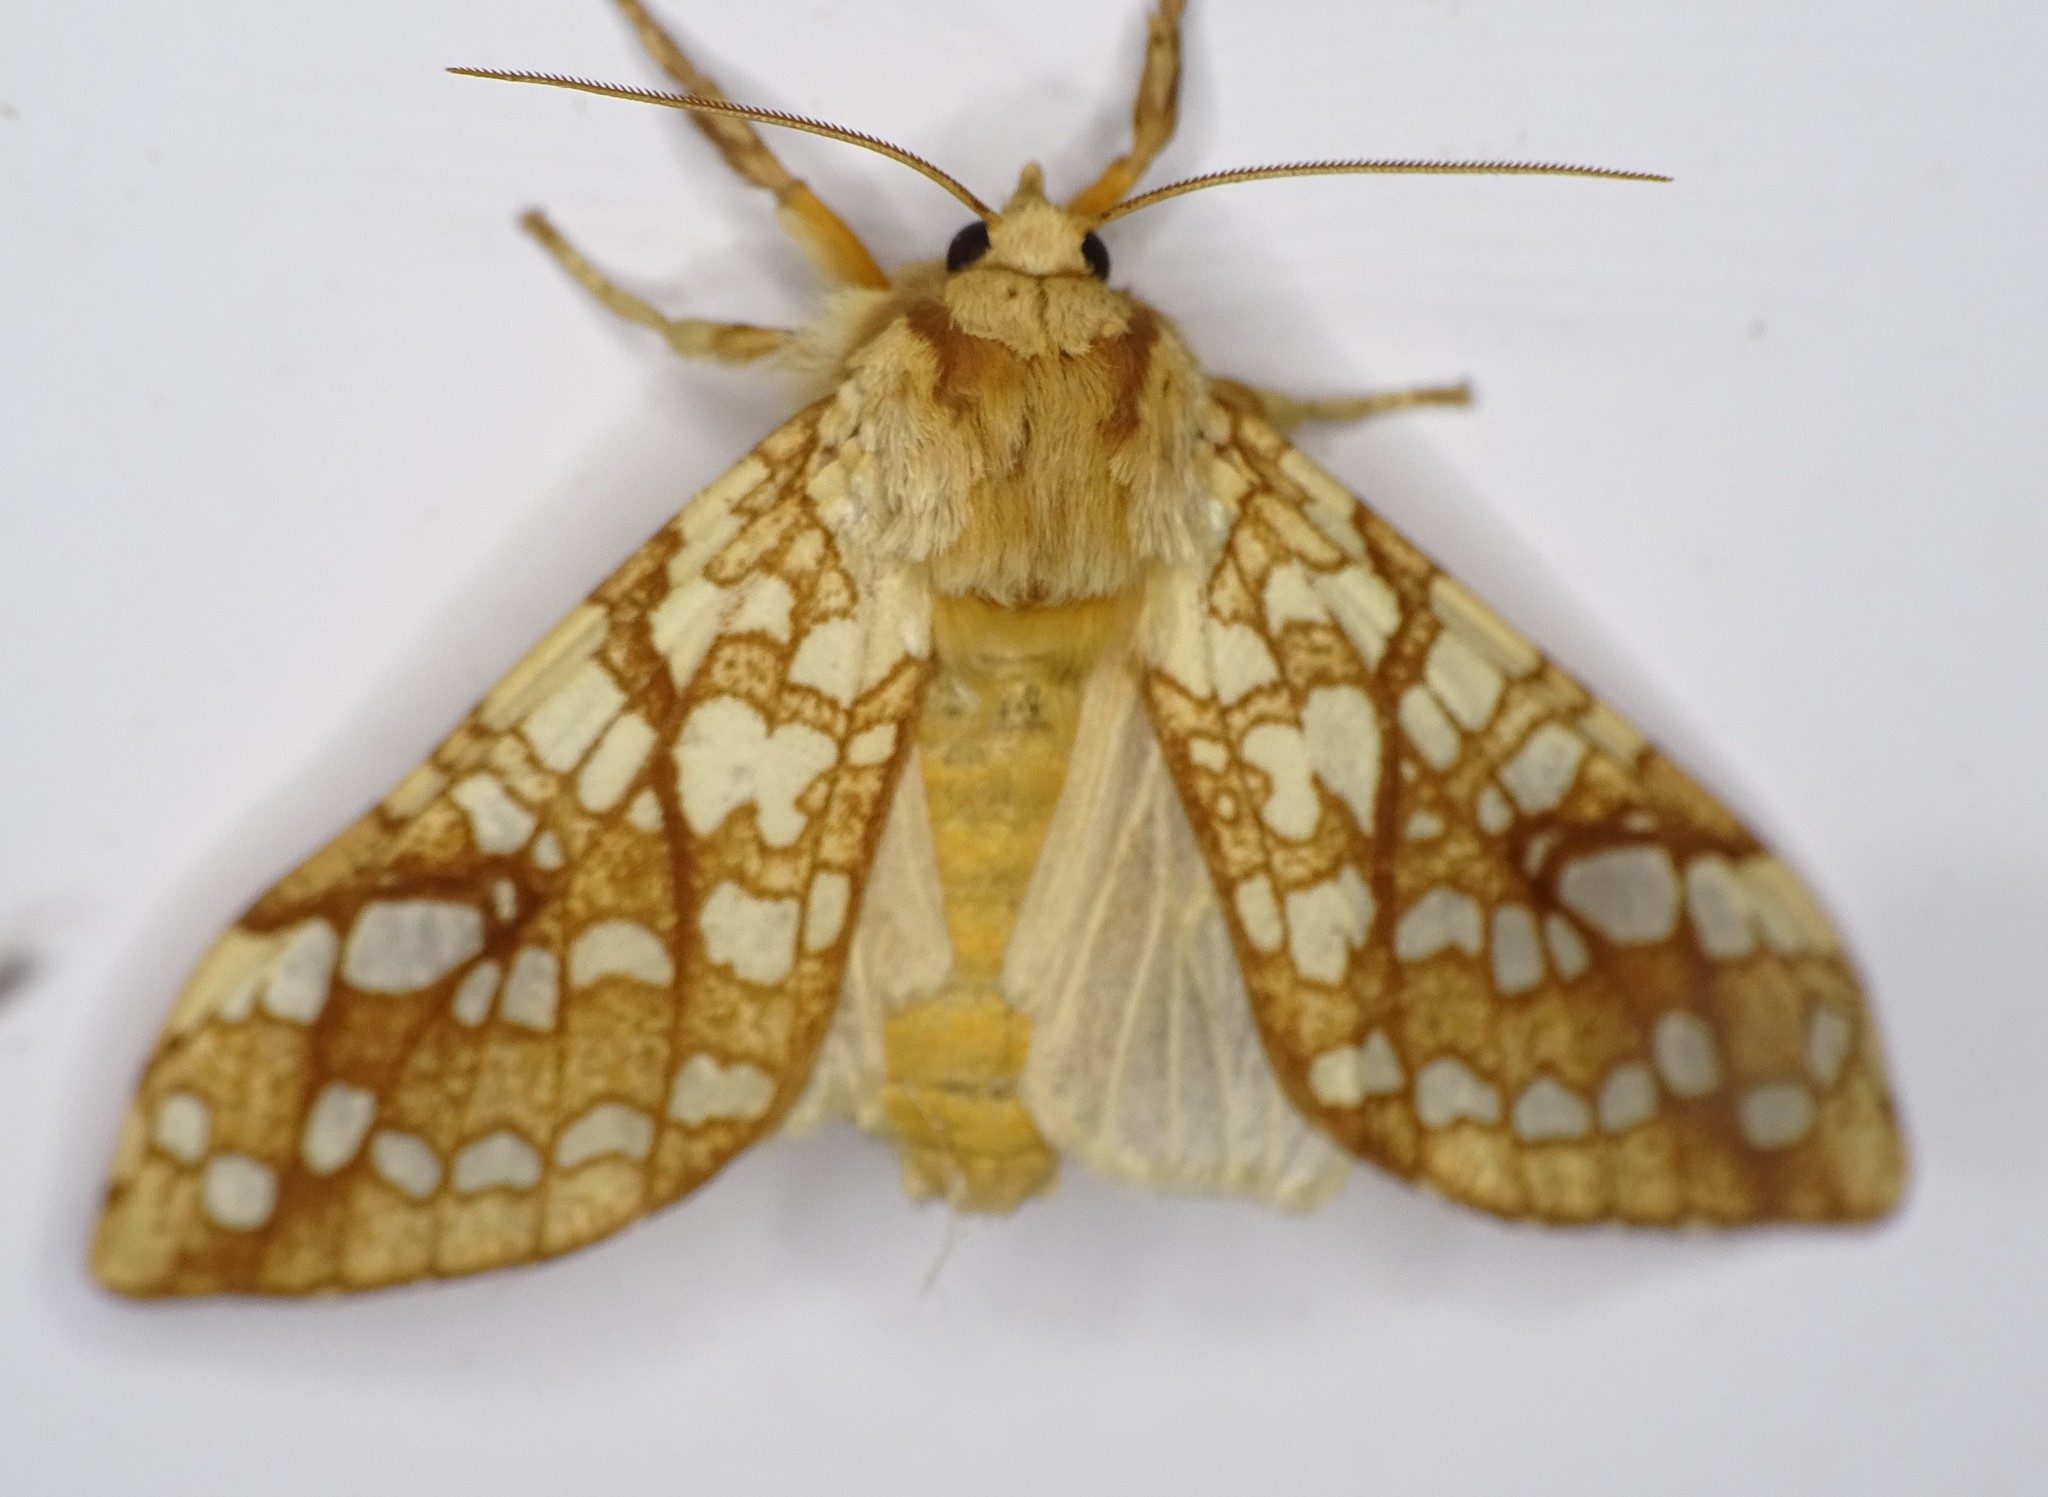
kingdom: Animalia
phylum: Arthropoda
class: Insecta
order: Lepidoptera
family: Erebidae
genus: Lophocampa
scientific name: Lophocampa caryae
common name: Hickory tussock moth
